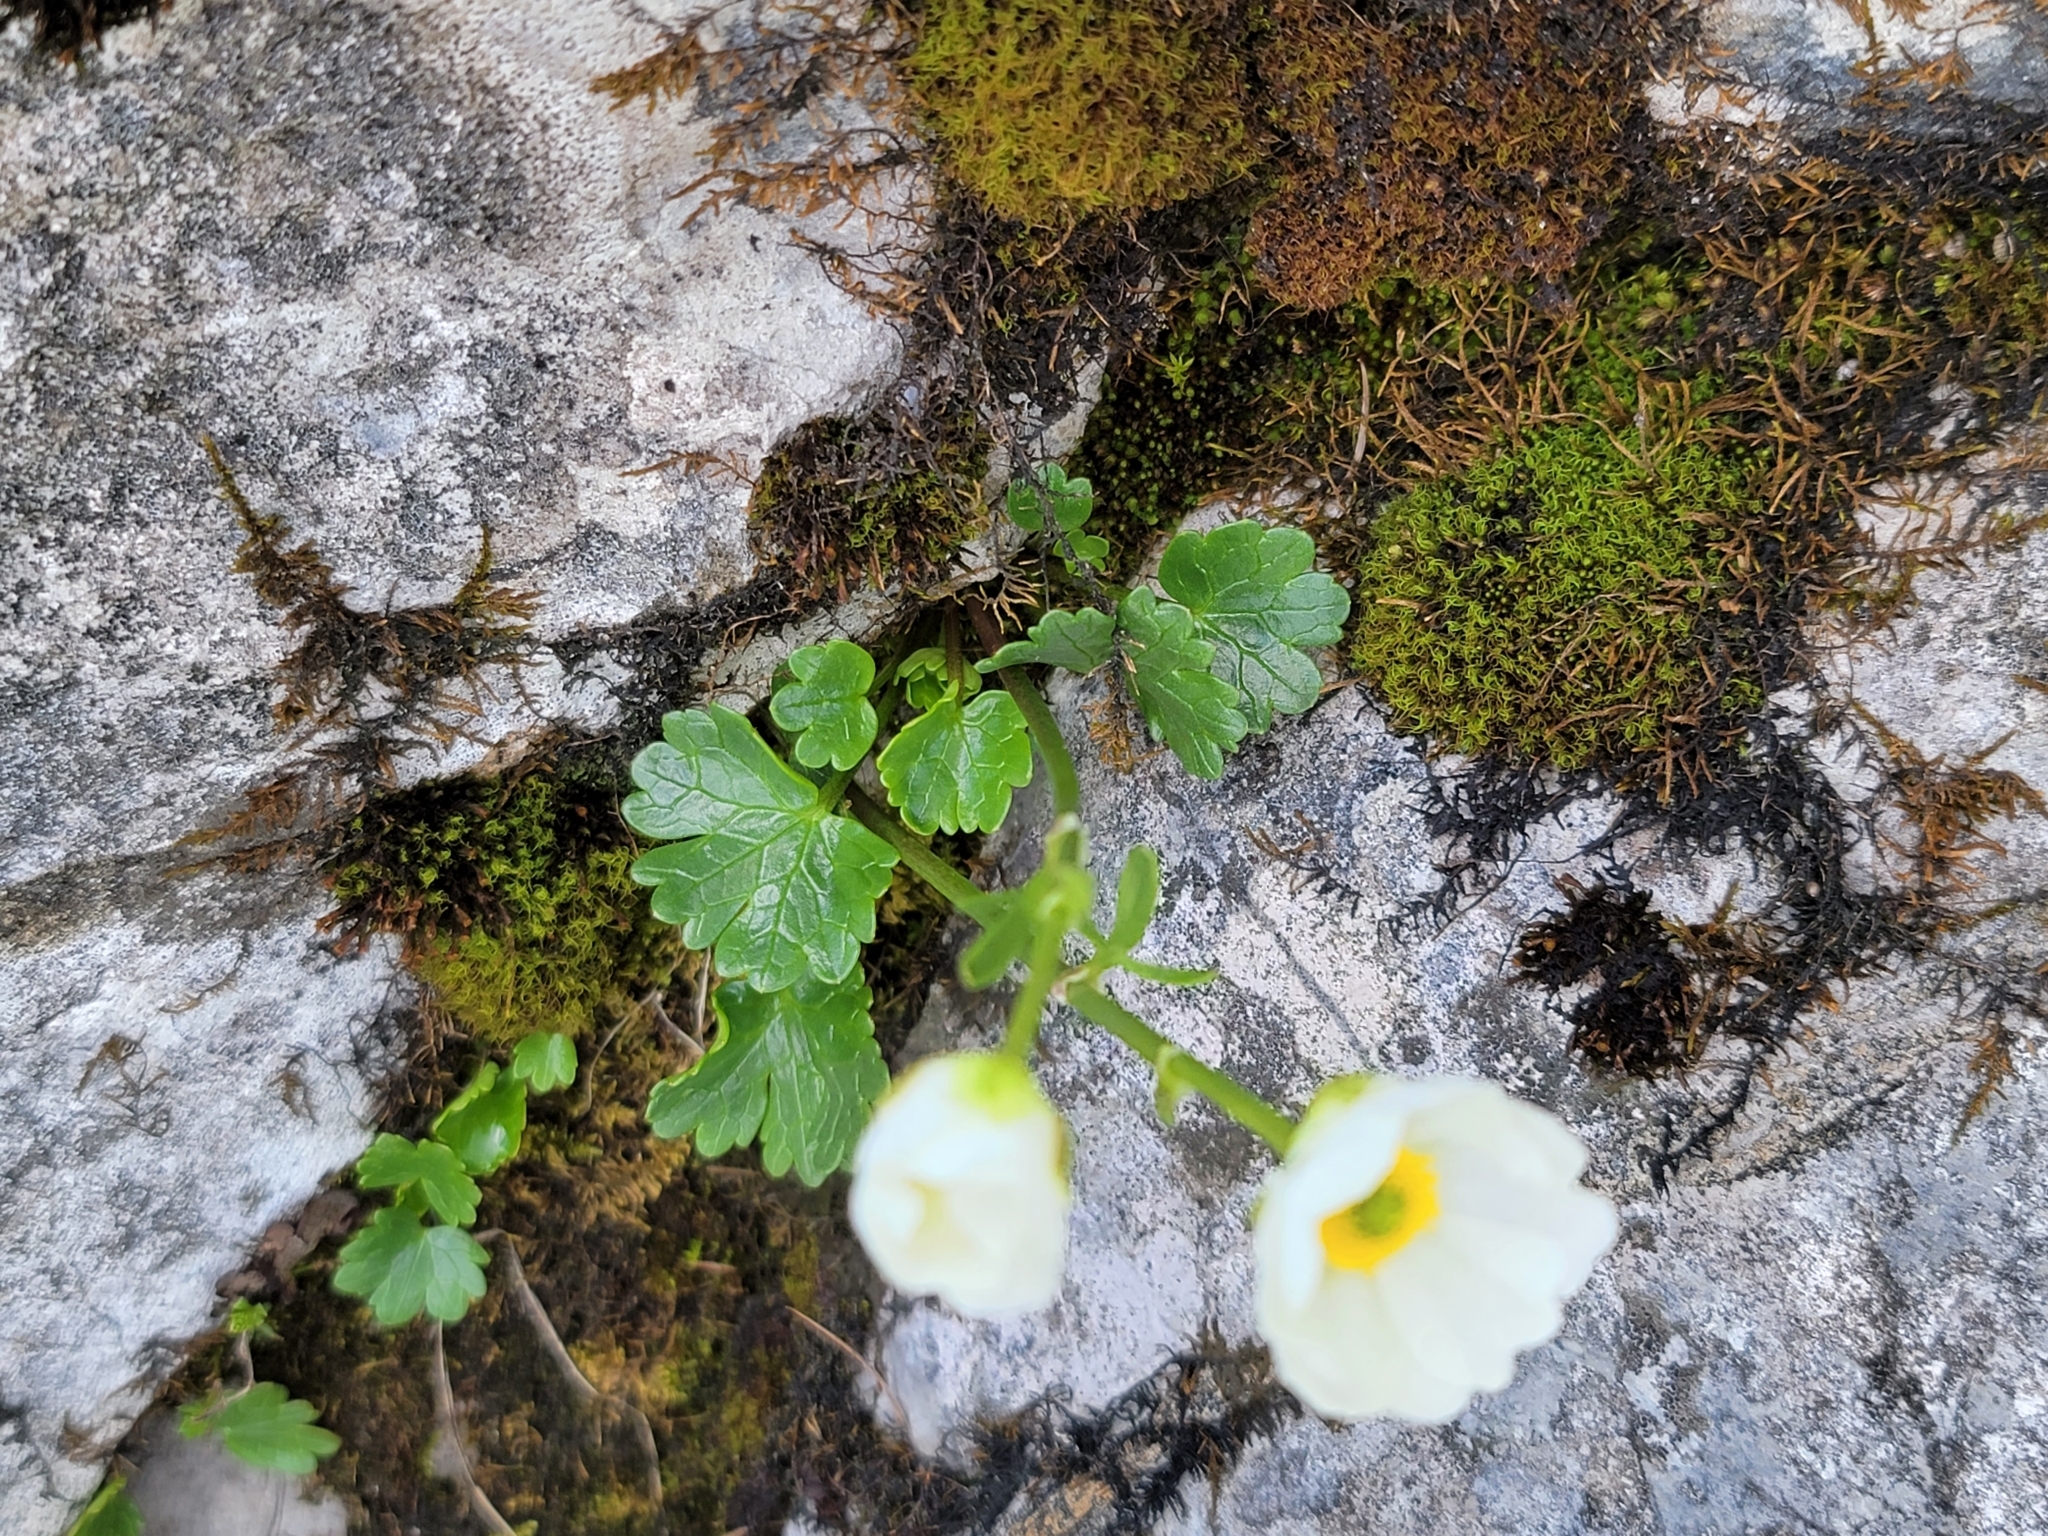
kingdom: Plantae
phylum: Tracheophyta
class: Magnoliopsida
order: Ranunculales
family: Ranunculaceae
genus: Ranunculus
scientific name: Ranunculus alpestris
